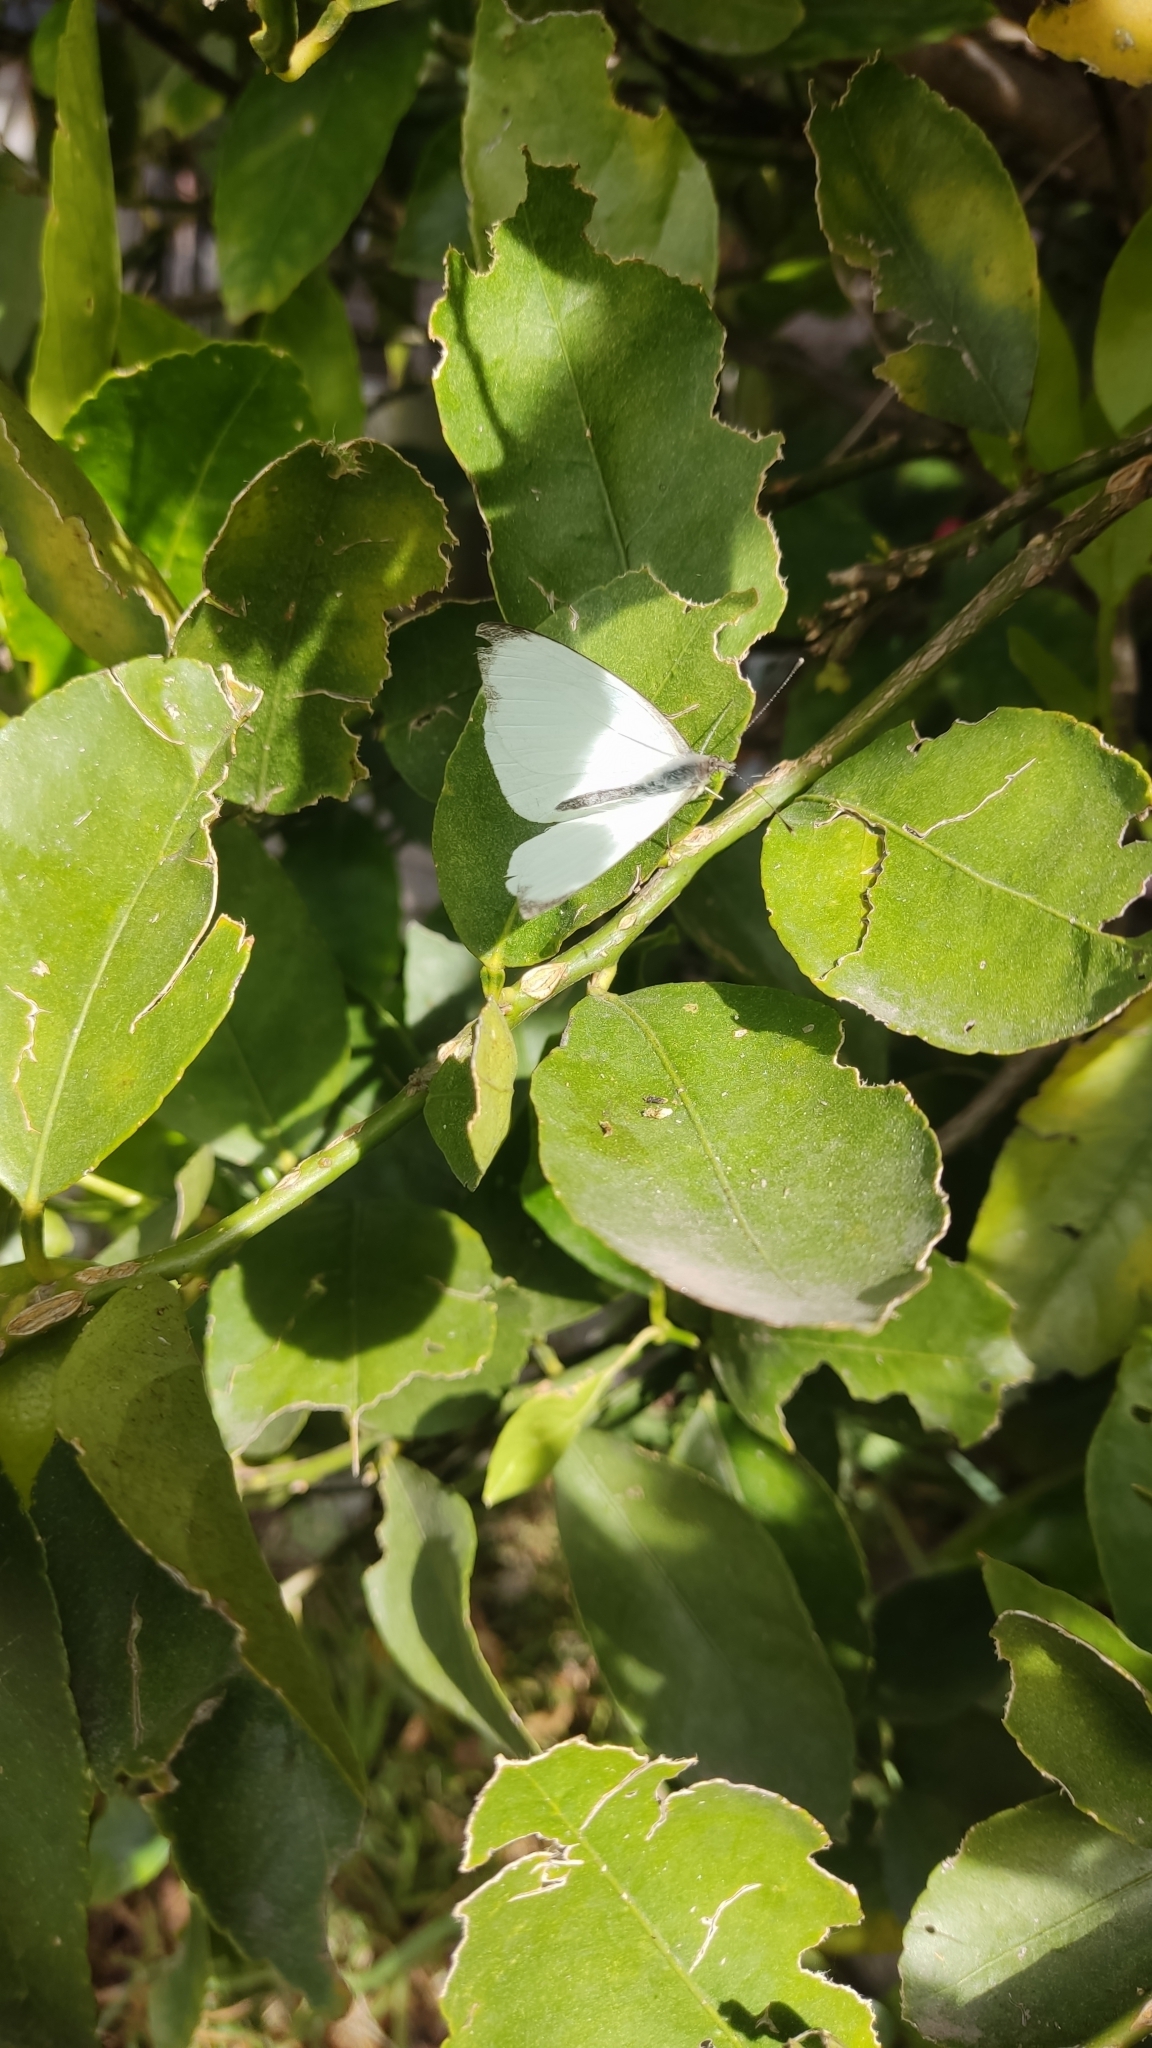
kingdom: Animalia
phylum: Arthropoda
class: Insecta
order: Lepidoptera
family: Pieridae
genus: Leptophobia
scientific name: Leptophobia aripa
